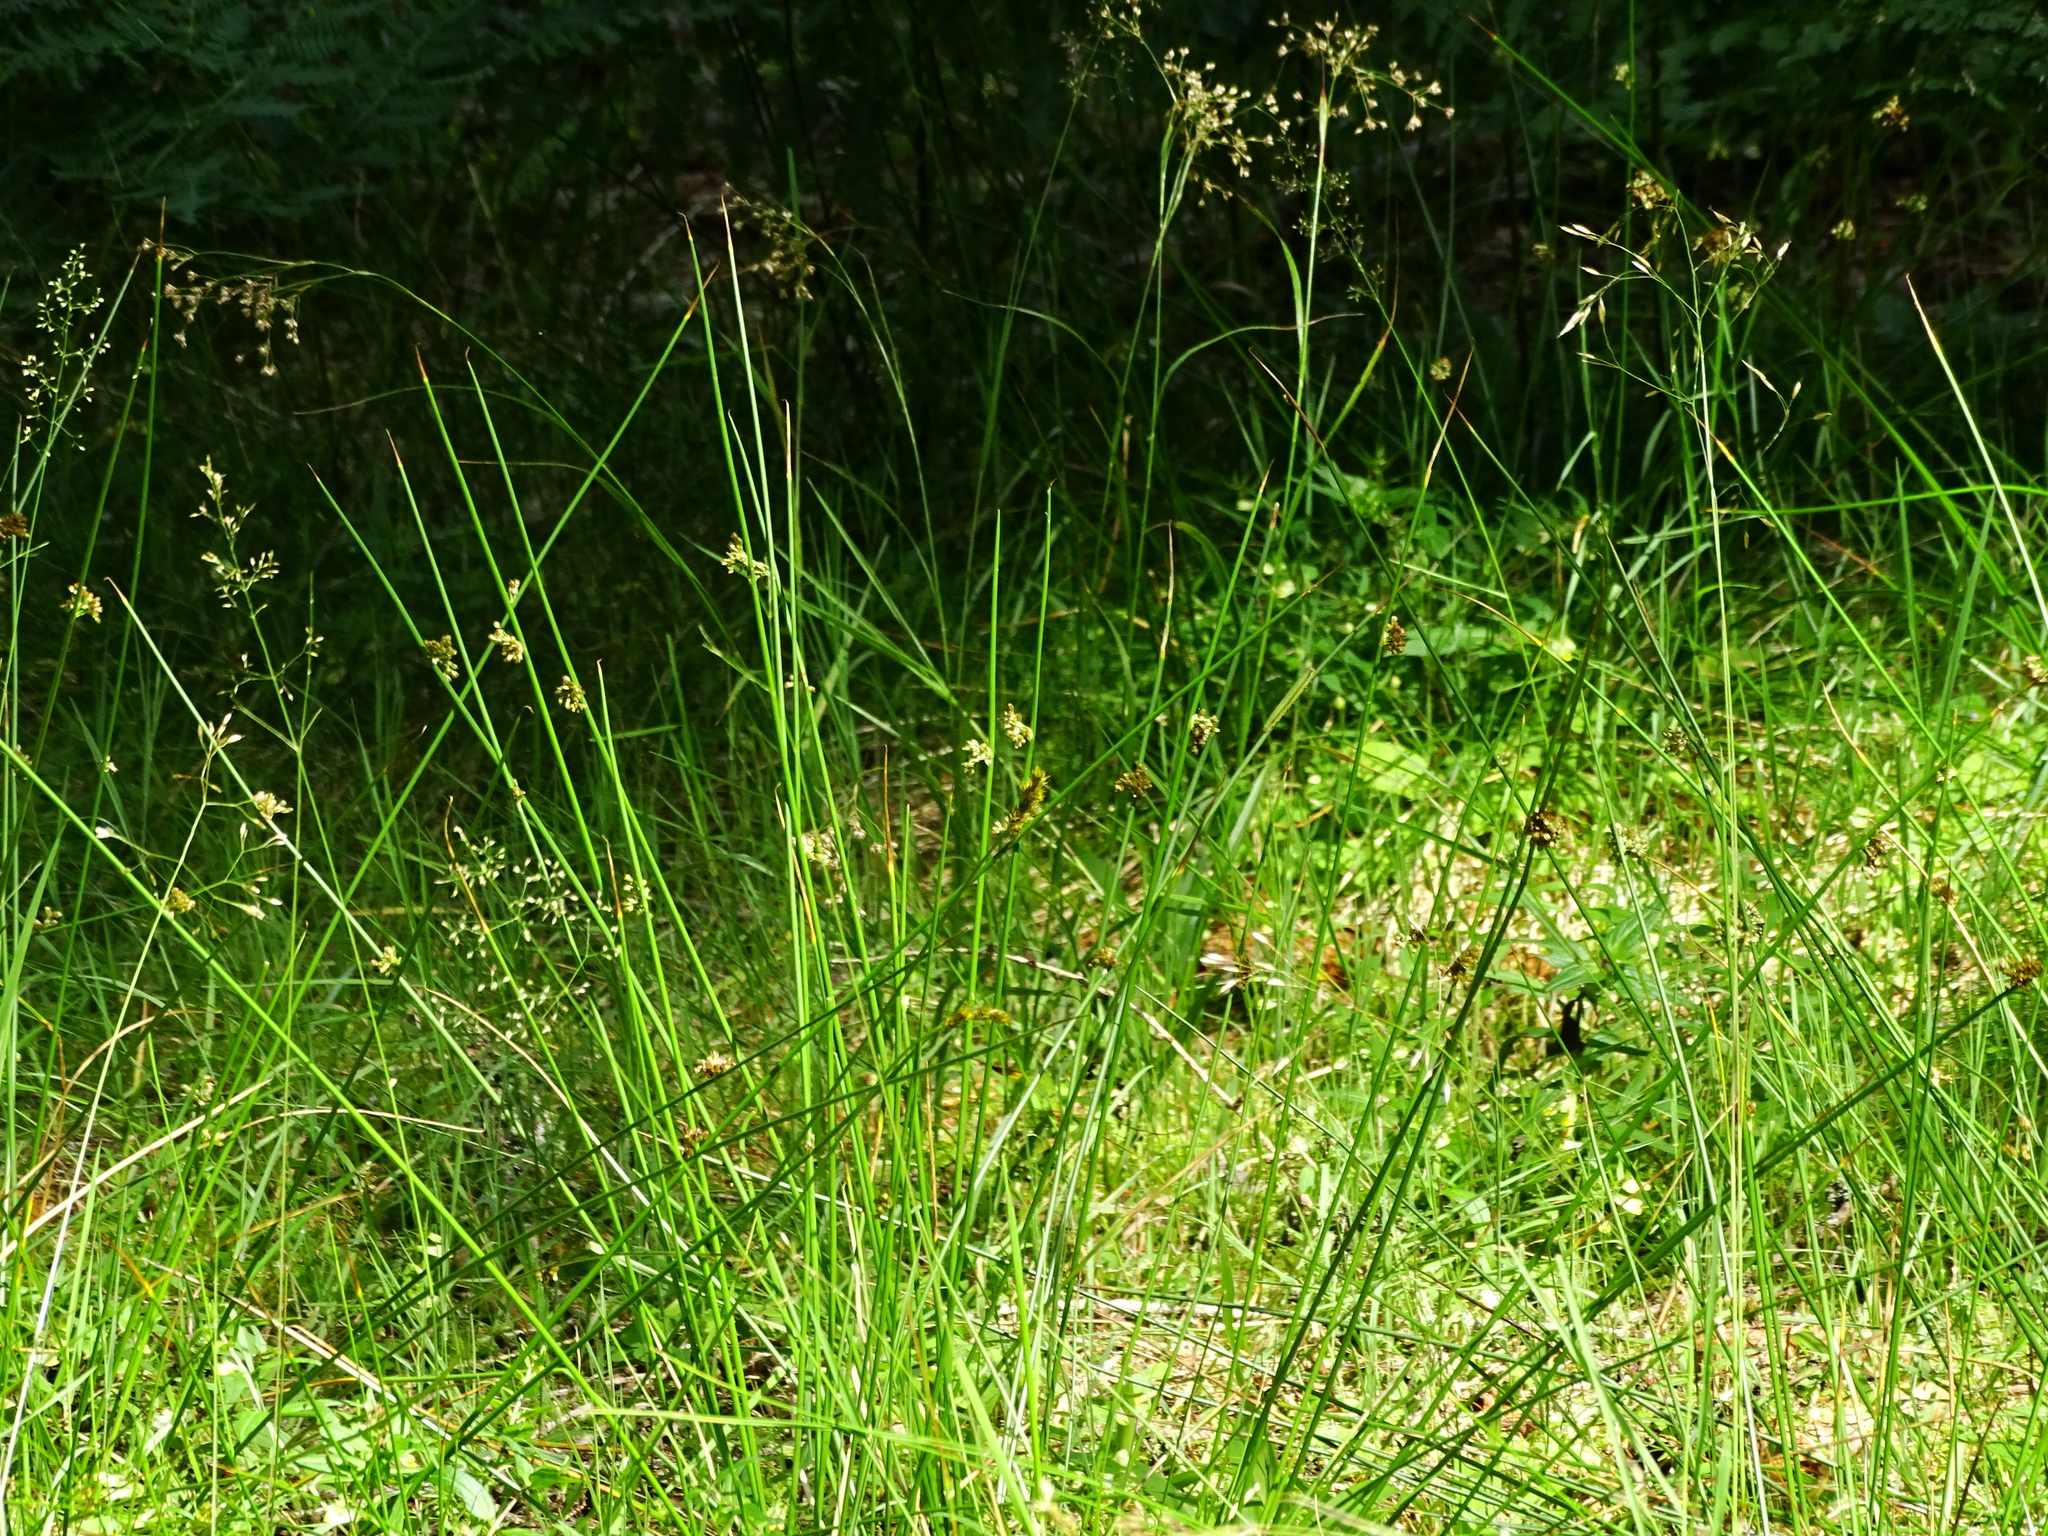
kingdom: Plantae
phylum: Tracheophyta
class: Liliopsida
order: Poales
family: Juncaceae
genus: Juncus
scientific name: Juncus effusus
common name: Soft rush
